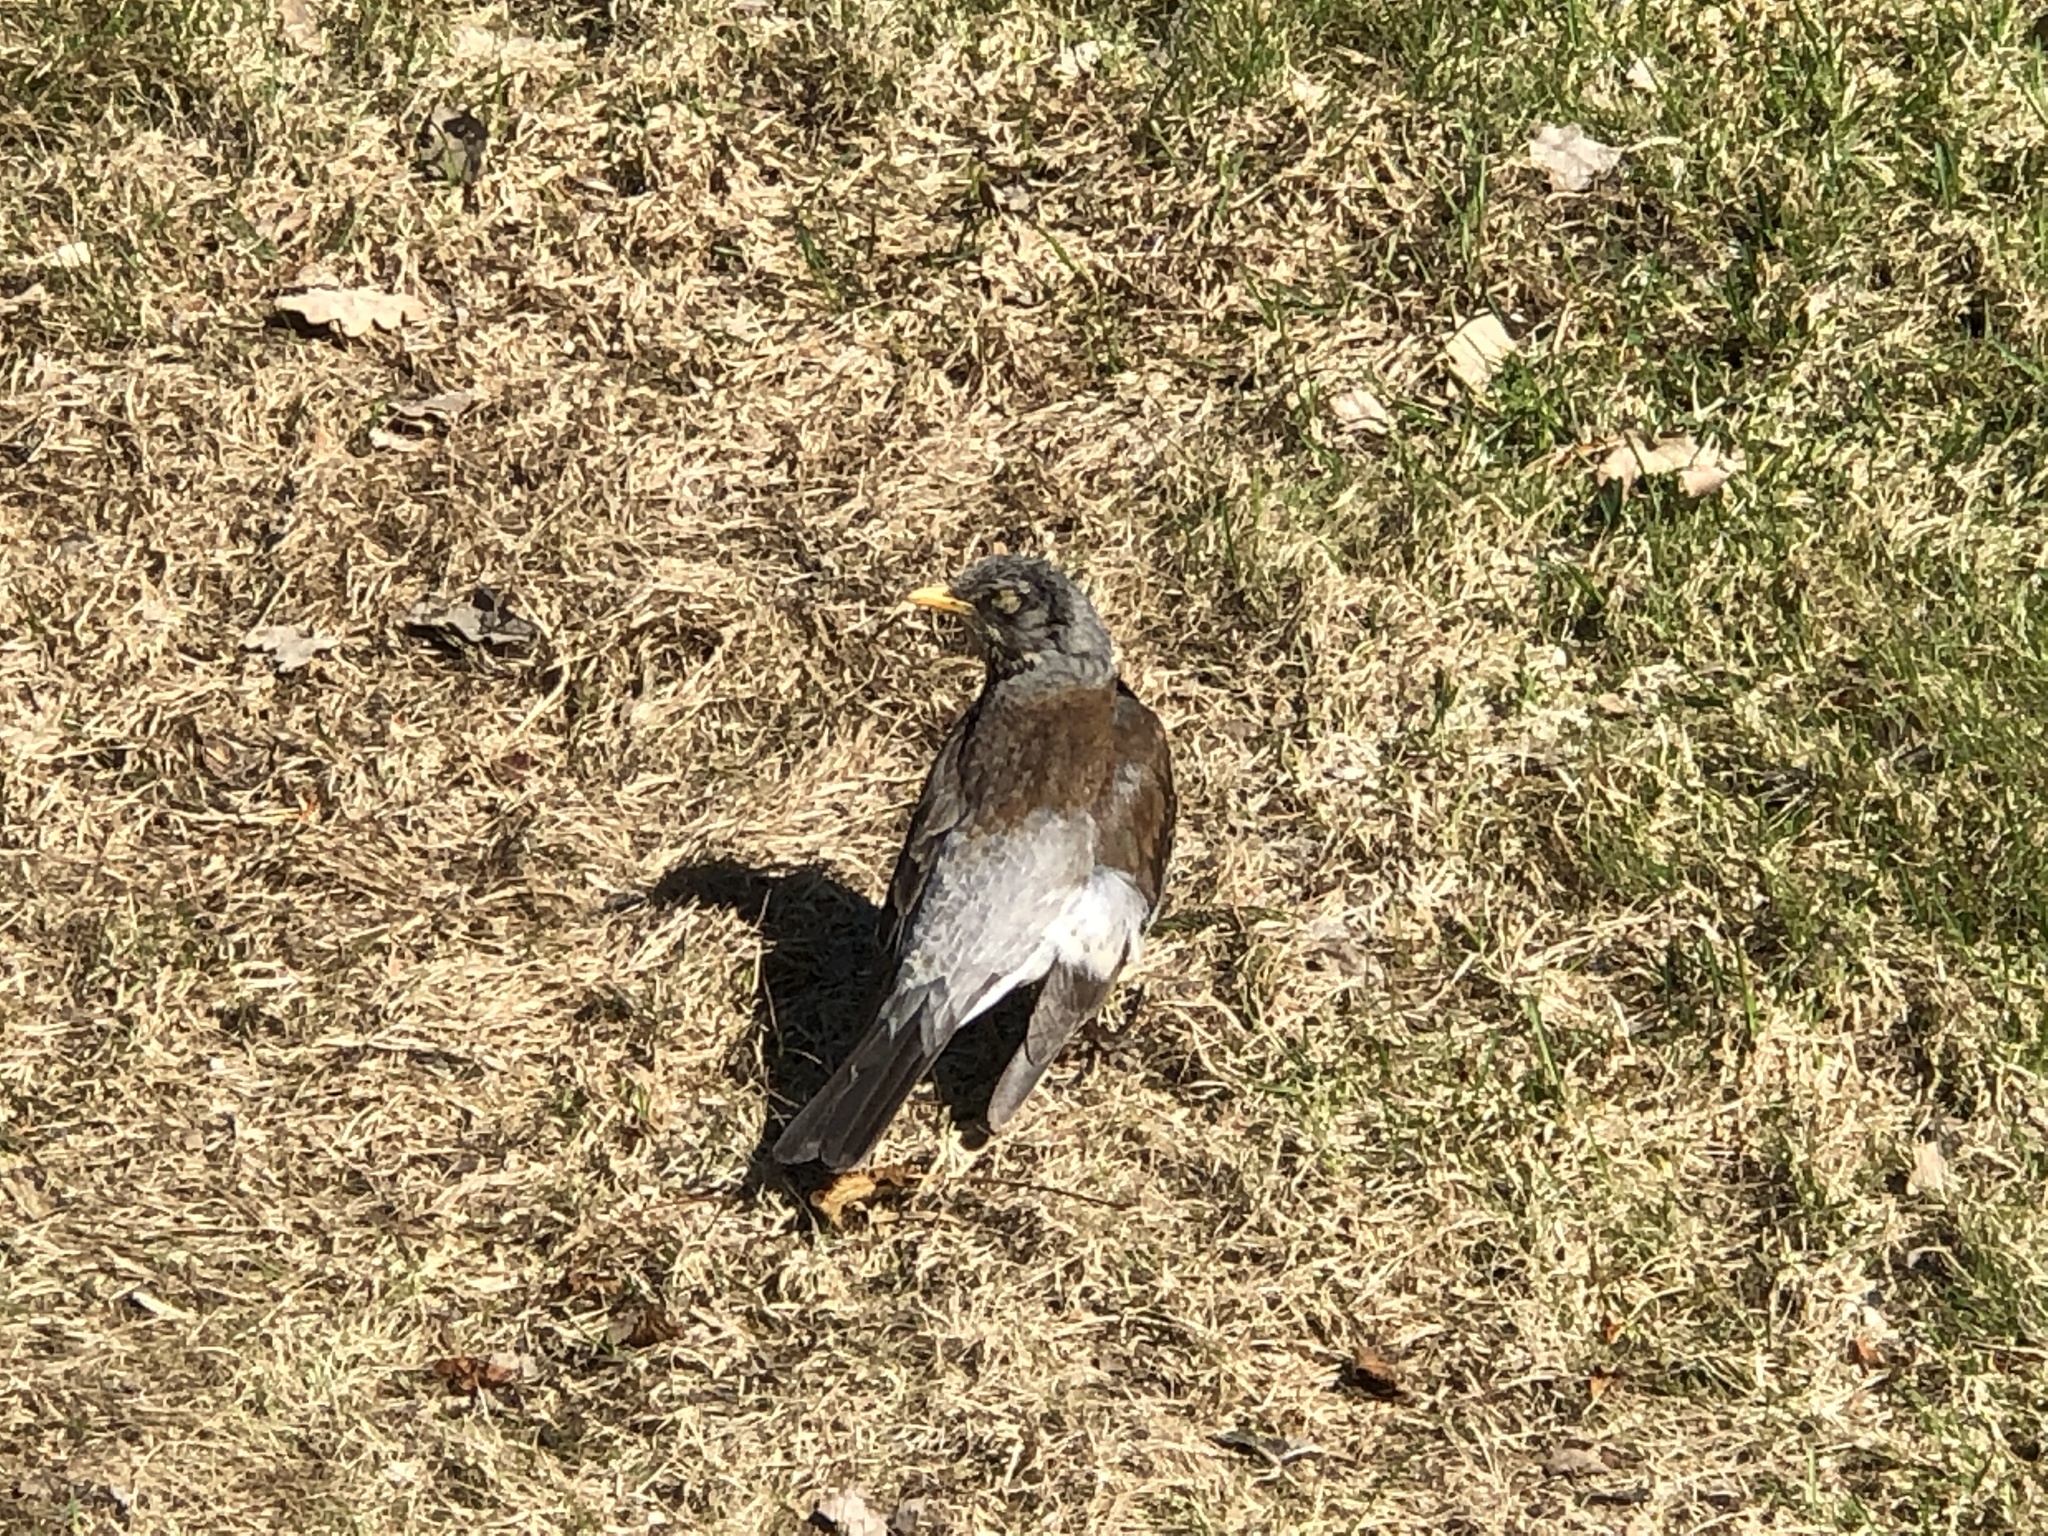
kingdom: Animalia
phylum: Chordata
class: Aves
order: Passeriformes
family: Turdidae
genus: Turdus
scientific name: Turdus pilaris
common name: Fieldfare
